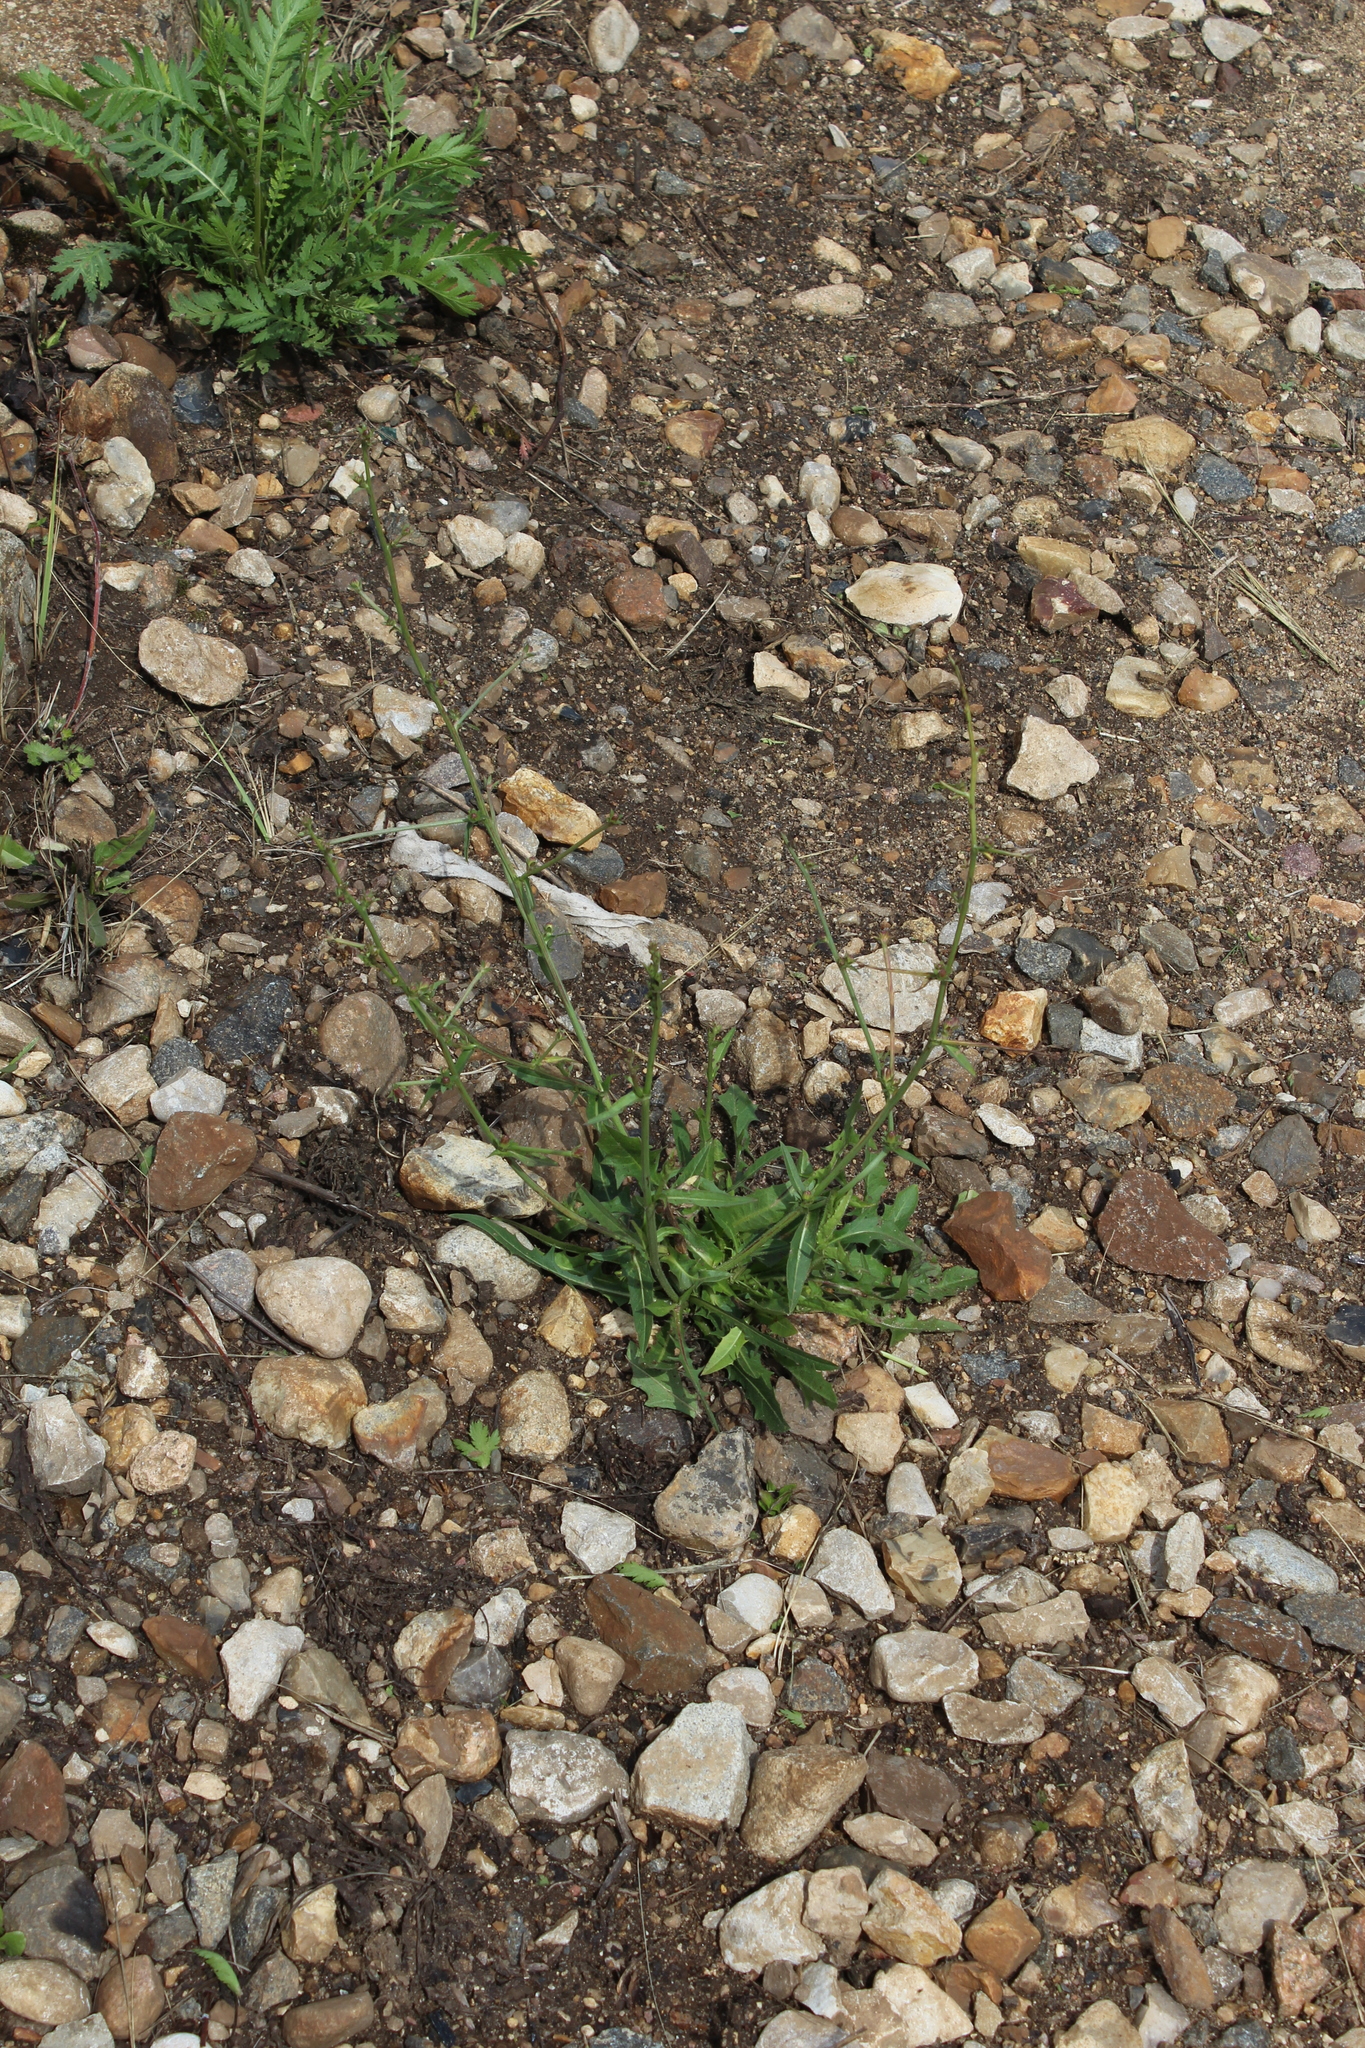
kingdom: Plantae
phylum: Tracheophyta
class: Magnoliopsida
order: Asterales
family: Asteraceae
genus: Cichorium
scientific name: Cichorium intybus
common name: Chicory
